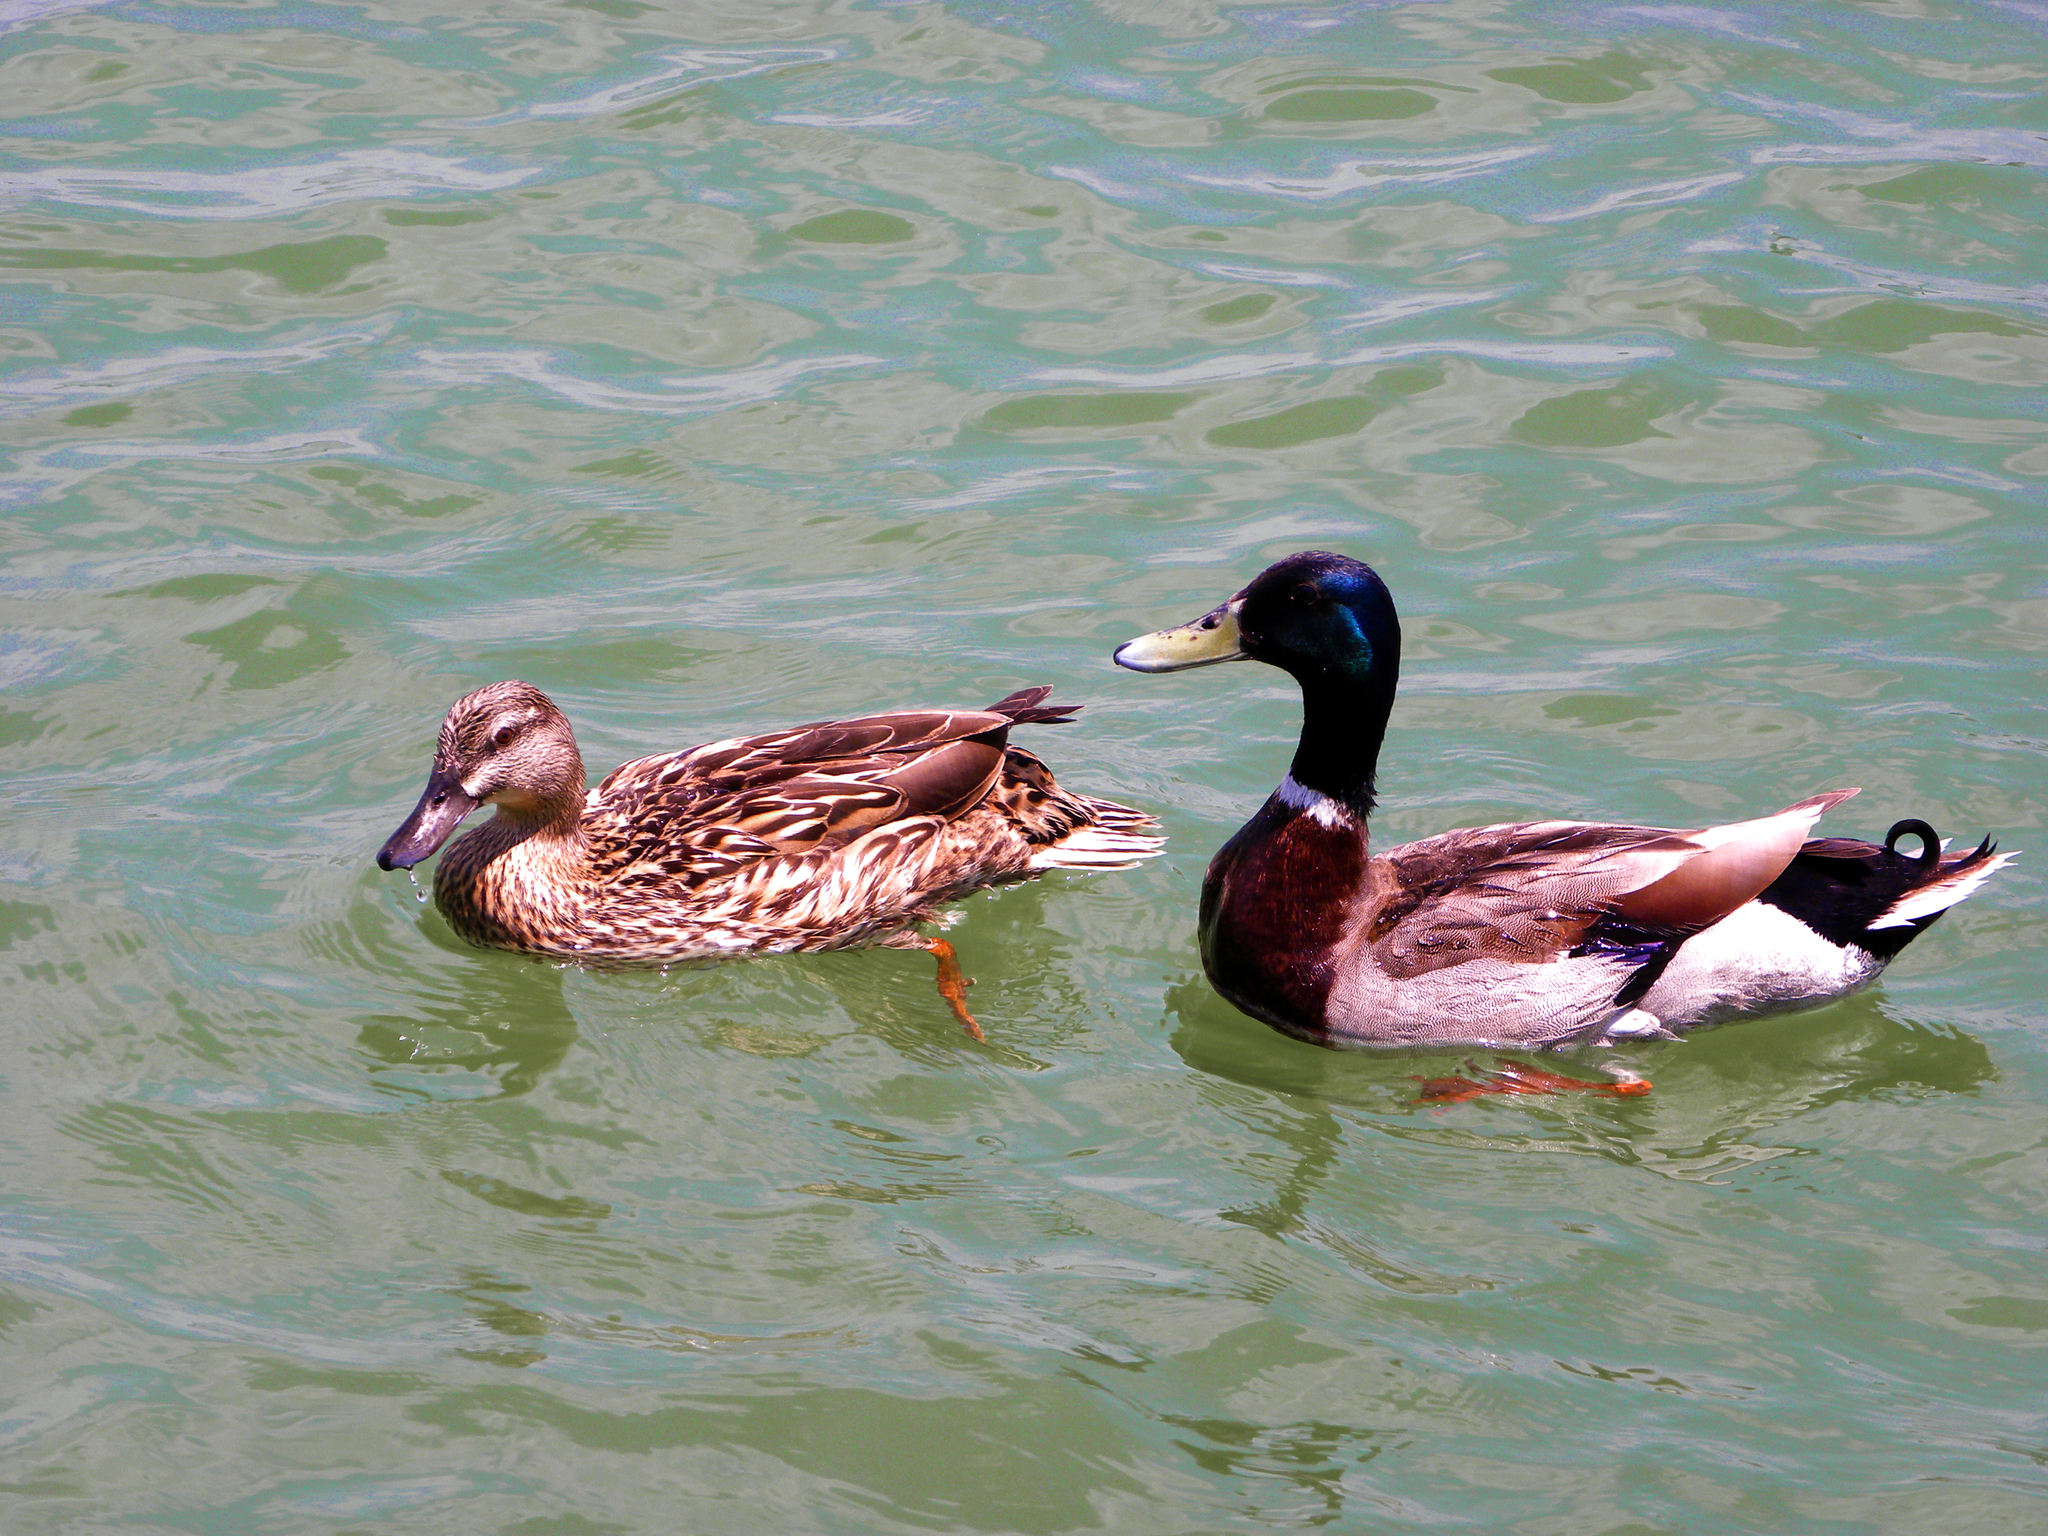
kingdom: Animalia
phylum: Chordata
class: Aves
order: Anseriformes
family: Anatidae
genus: Anas
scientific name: Anas platyrhynchos
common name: Mallard
